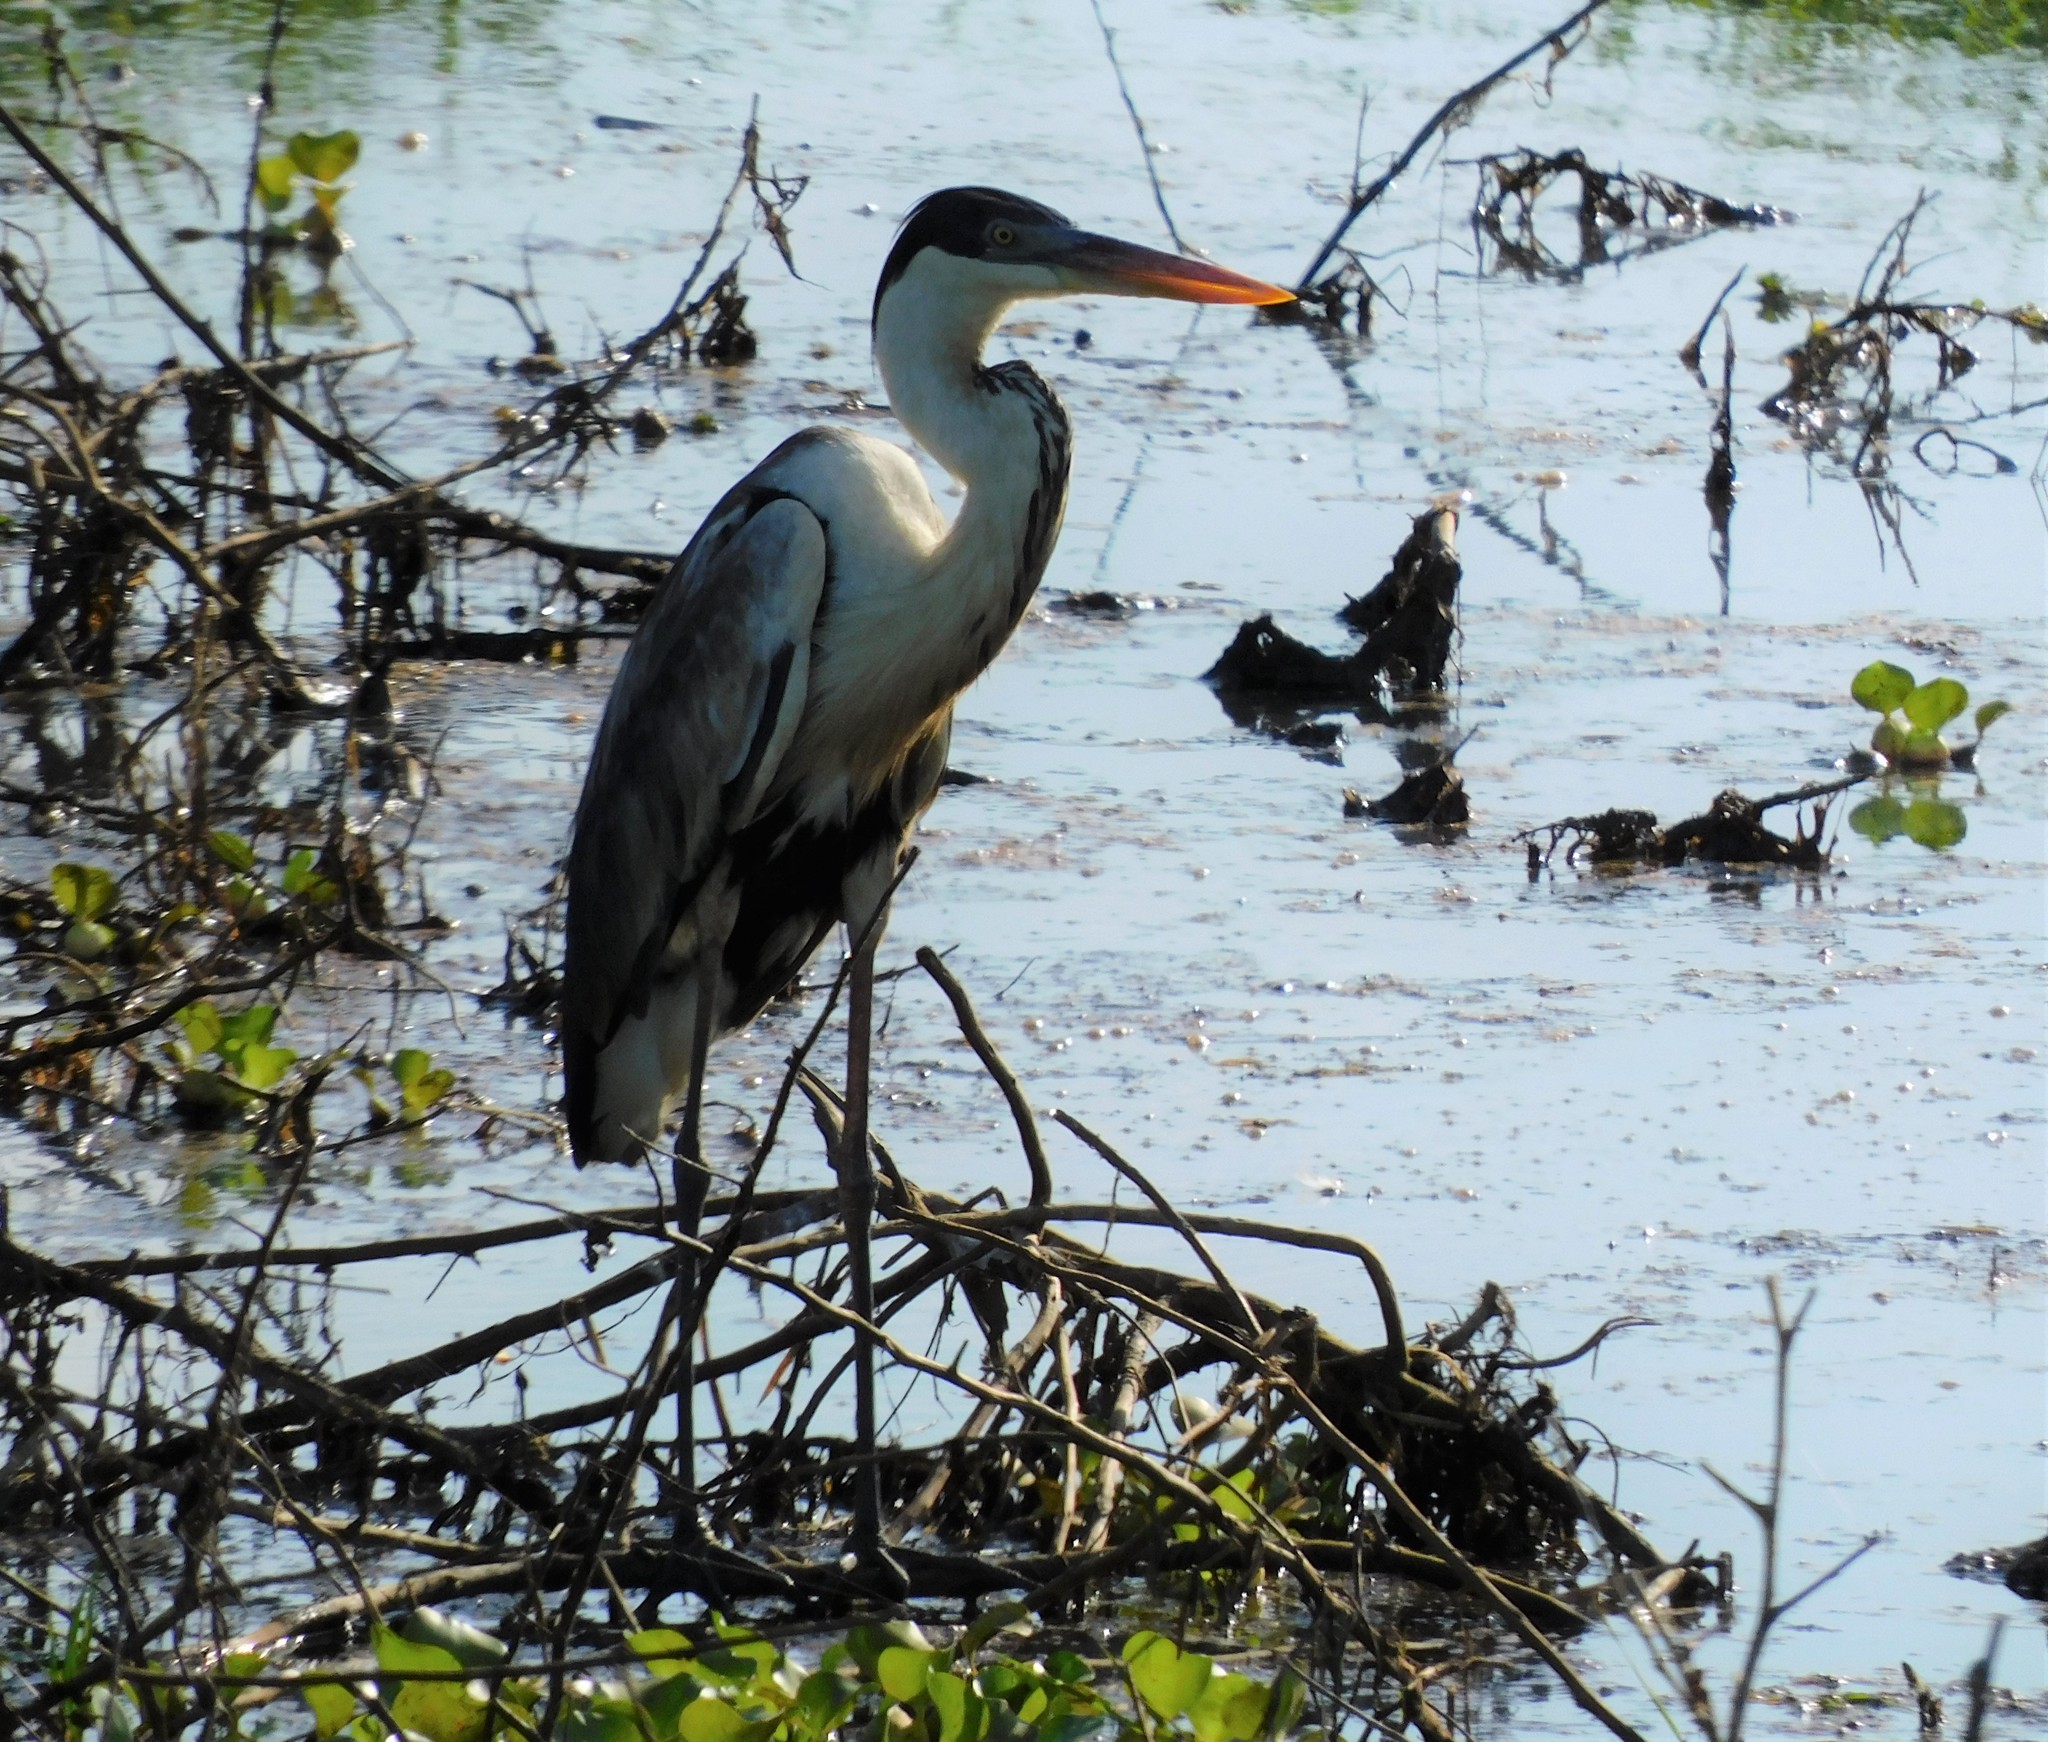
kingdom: Animalia
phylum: Chordata
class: Aves
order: Pelecaniformes
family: Ardeidae
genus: Ardea
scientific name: Ardea cocoi
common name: Cocoi heron
